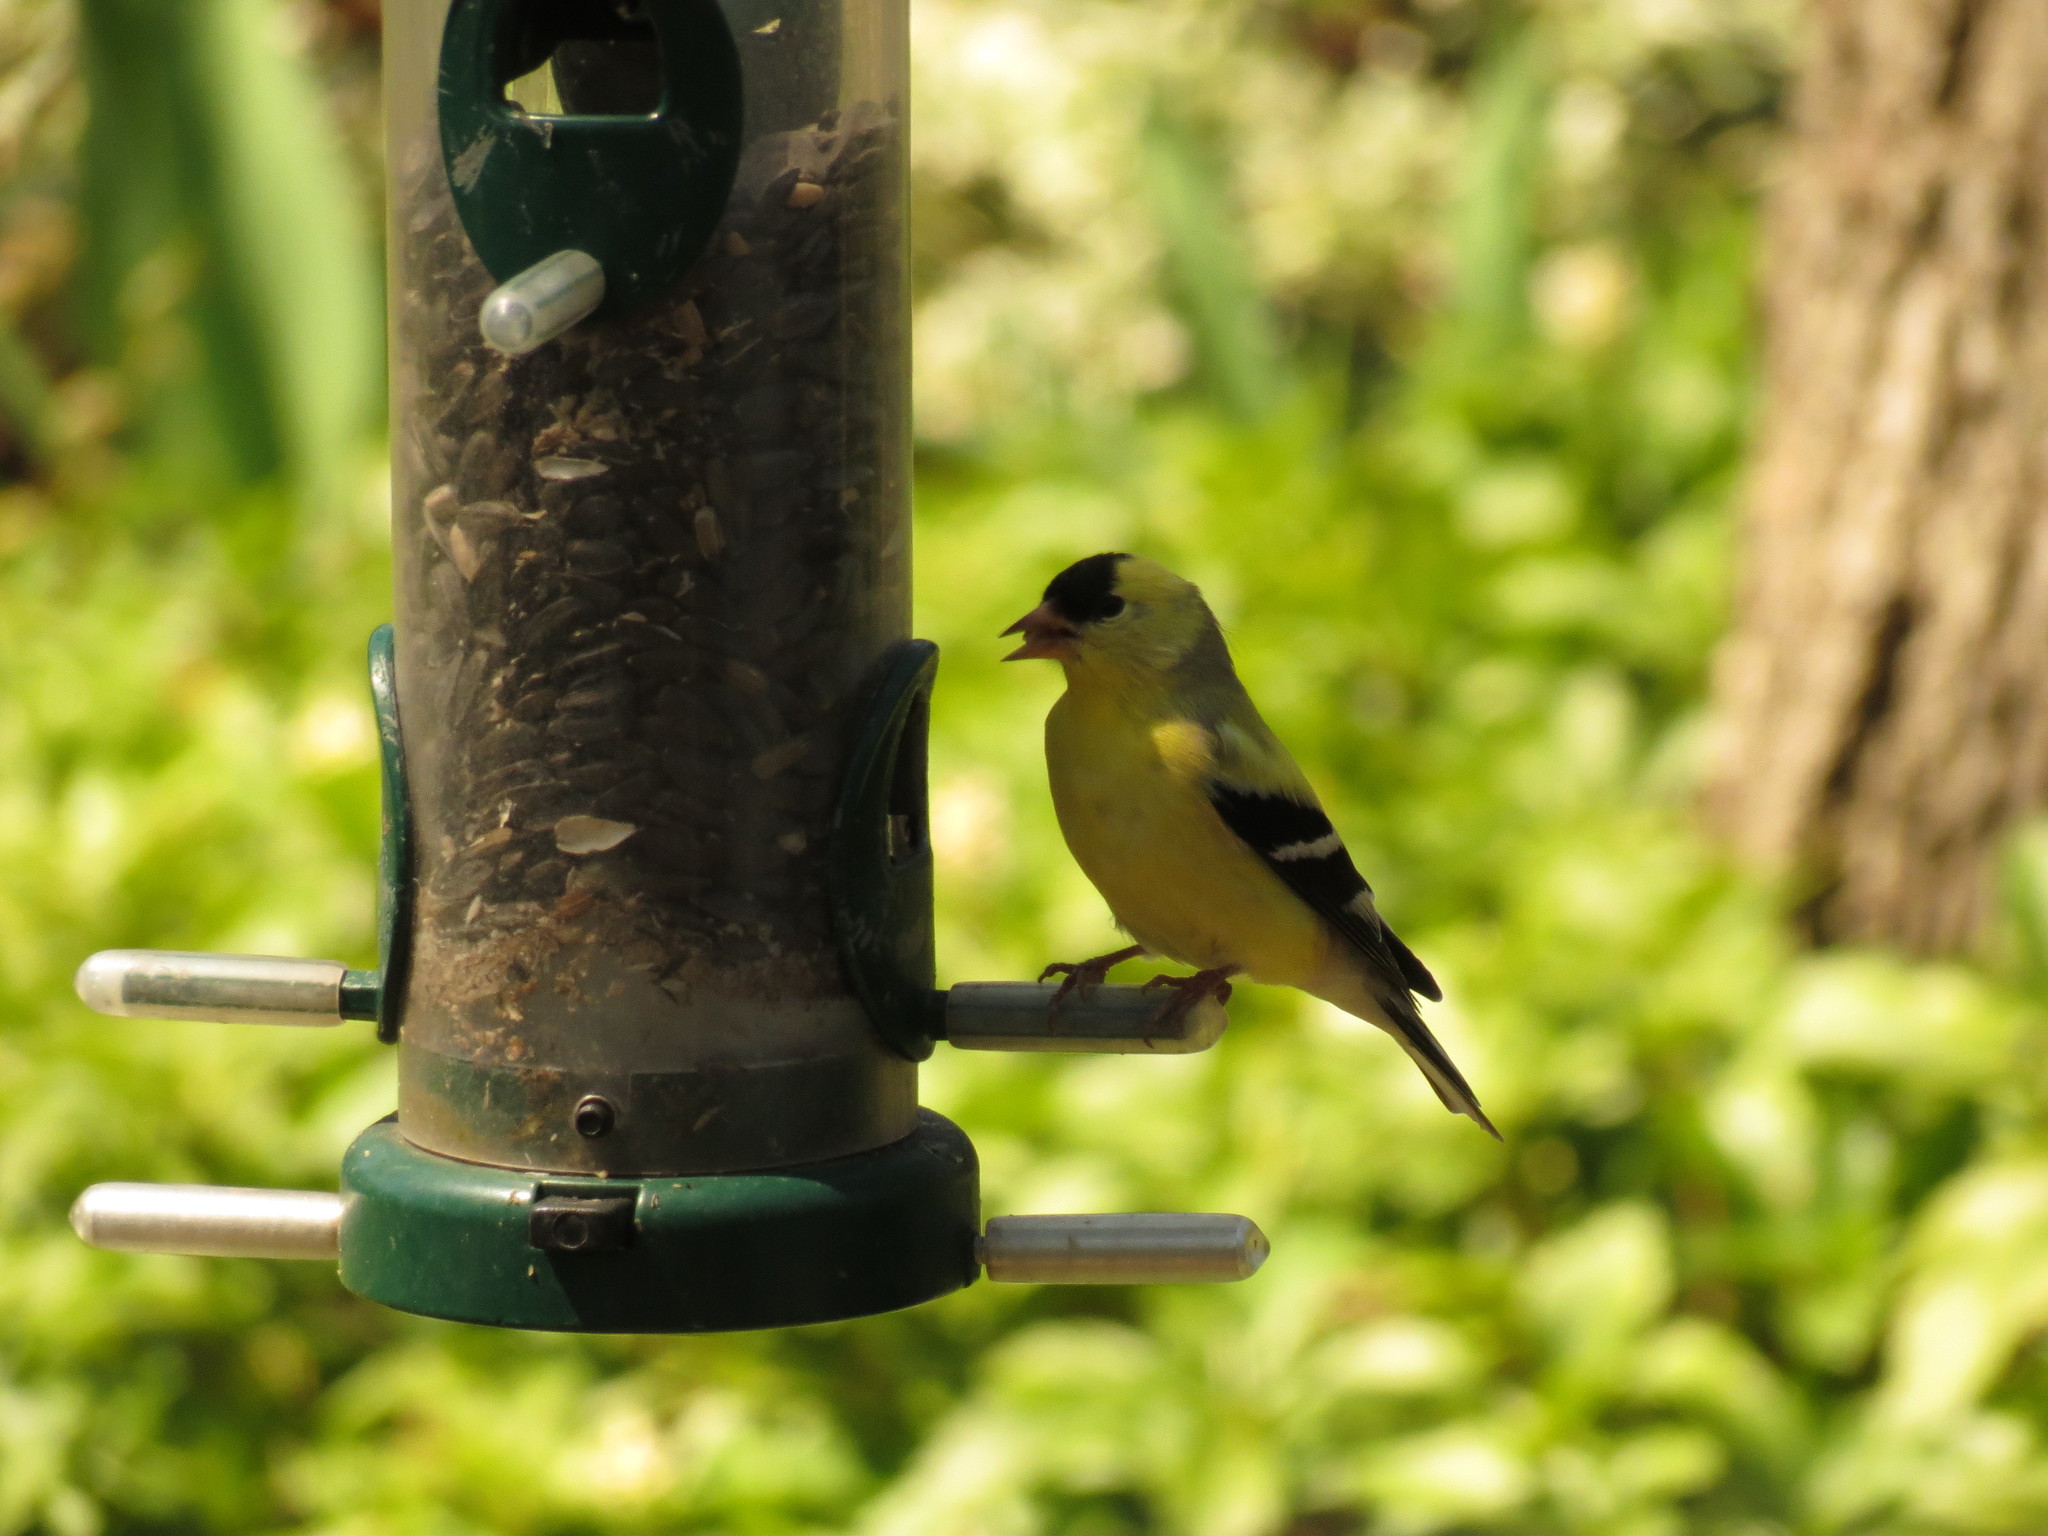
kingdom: Animalia
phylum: Chordata
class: Aves
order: Passeriformes
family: Fringillidae
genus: Spinus
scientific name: Spinus tristis
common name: American goldfinch
